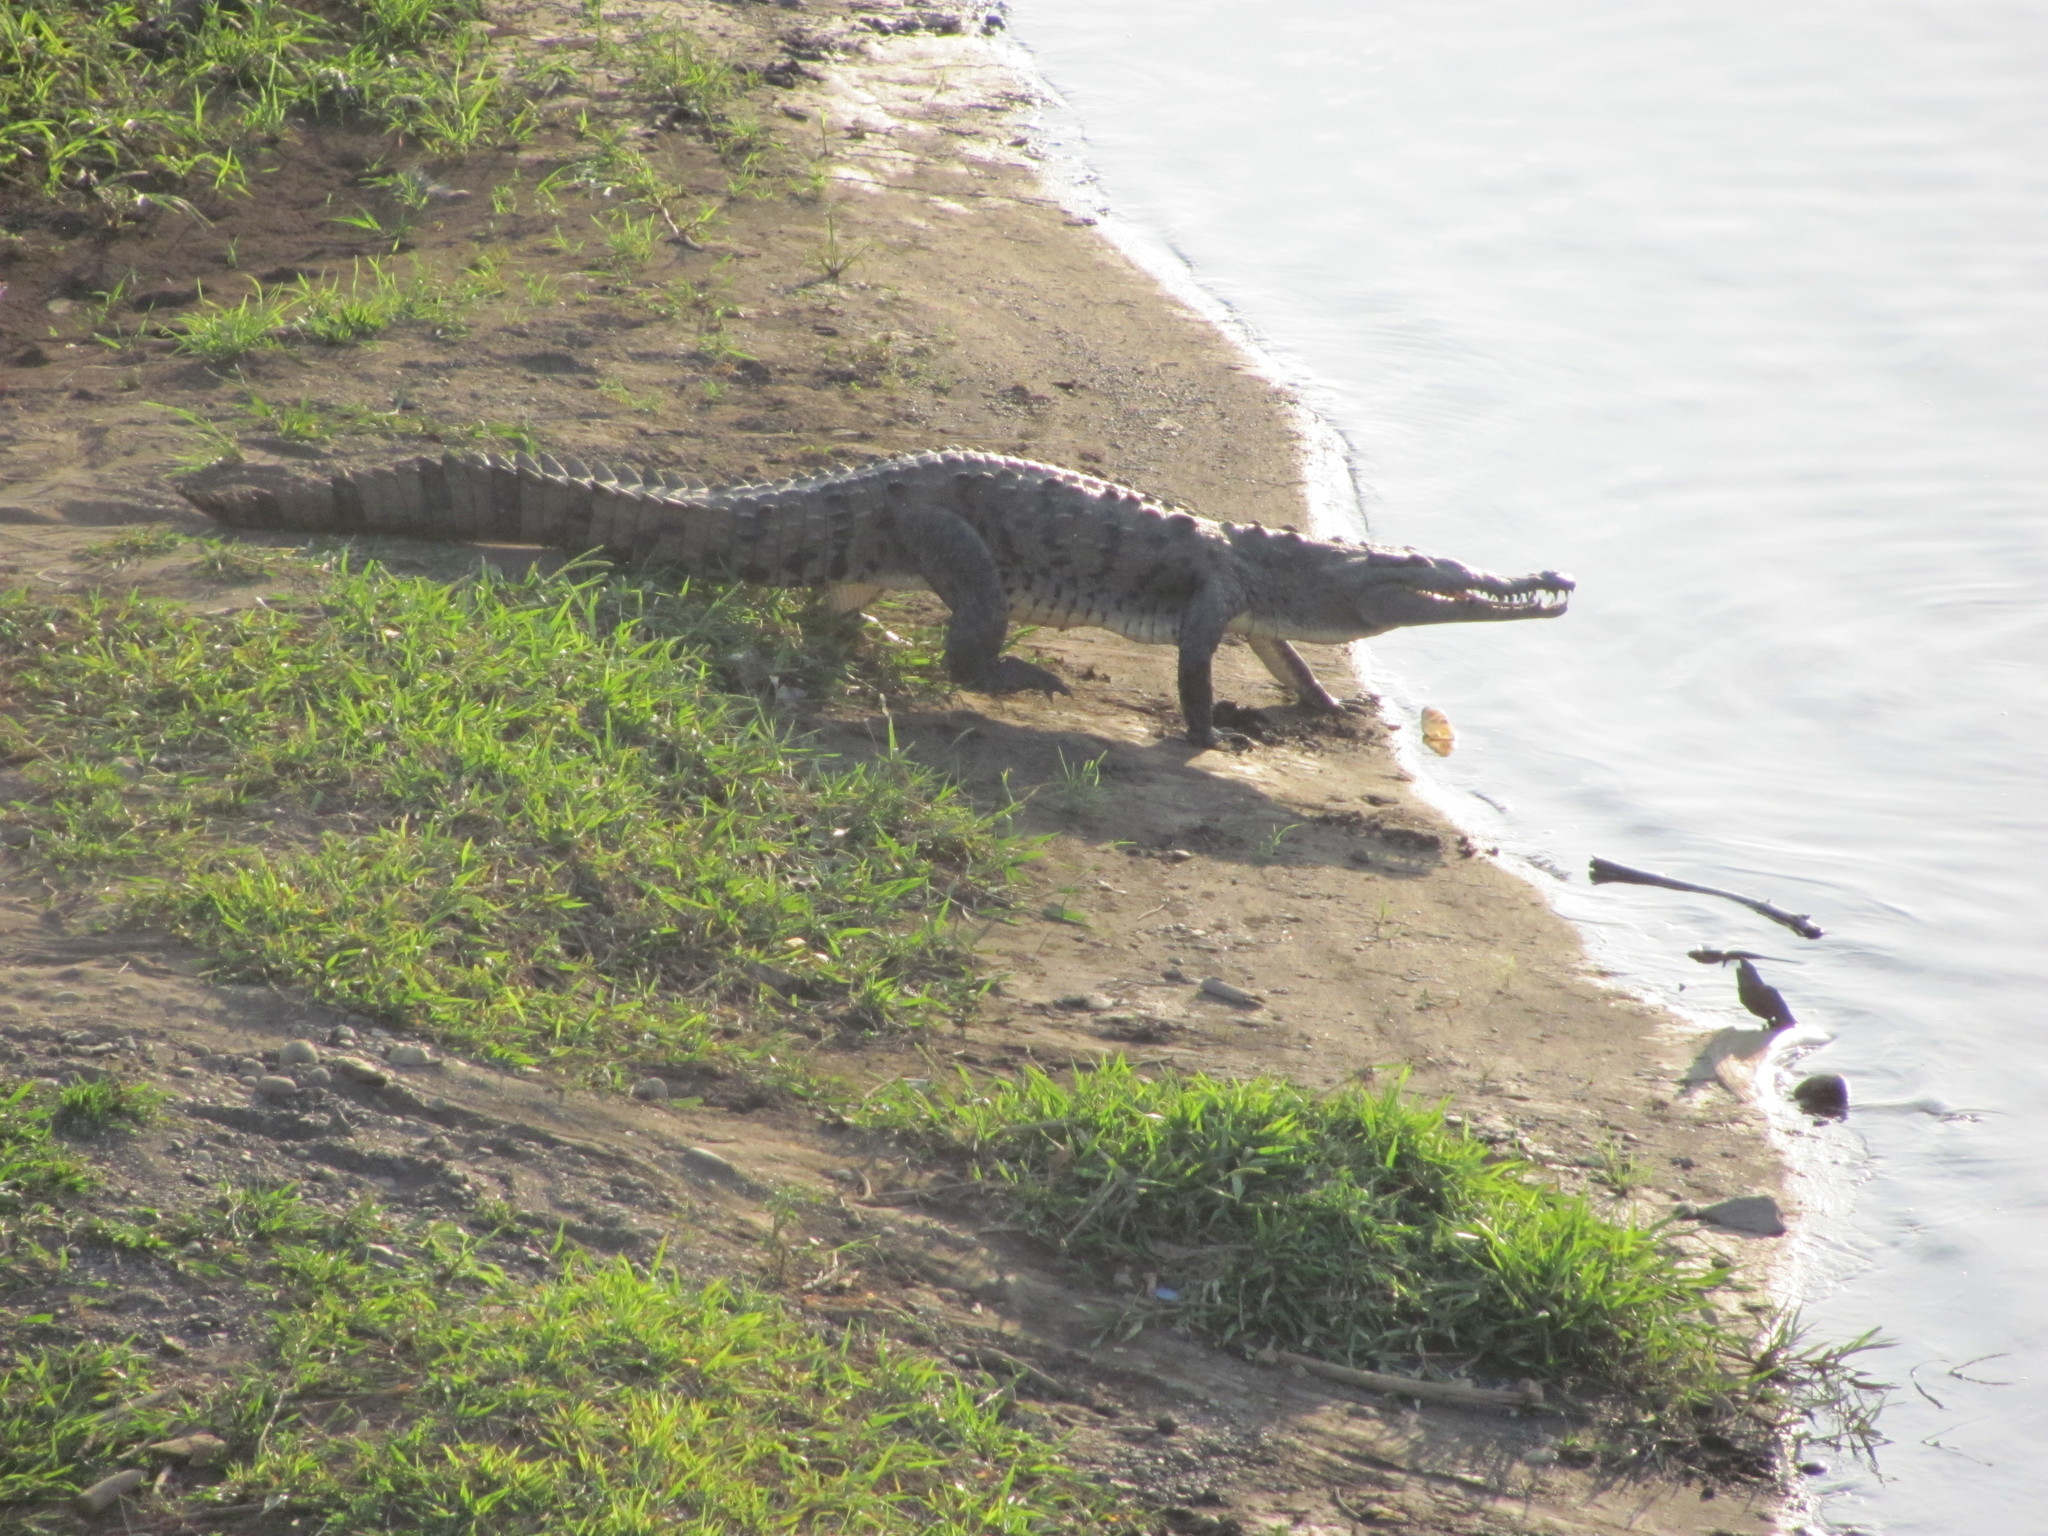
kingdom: Animalia
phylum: Chordata
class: Crocodylia
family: Crocodylidae
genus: Crocodylus
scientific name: Crocodylus acutus
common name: American crocodile
